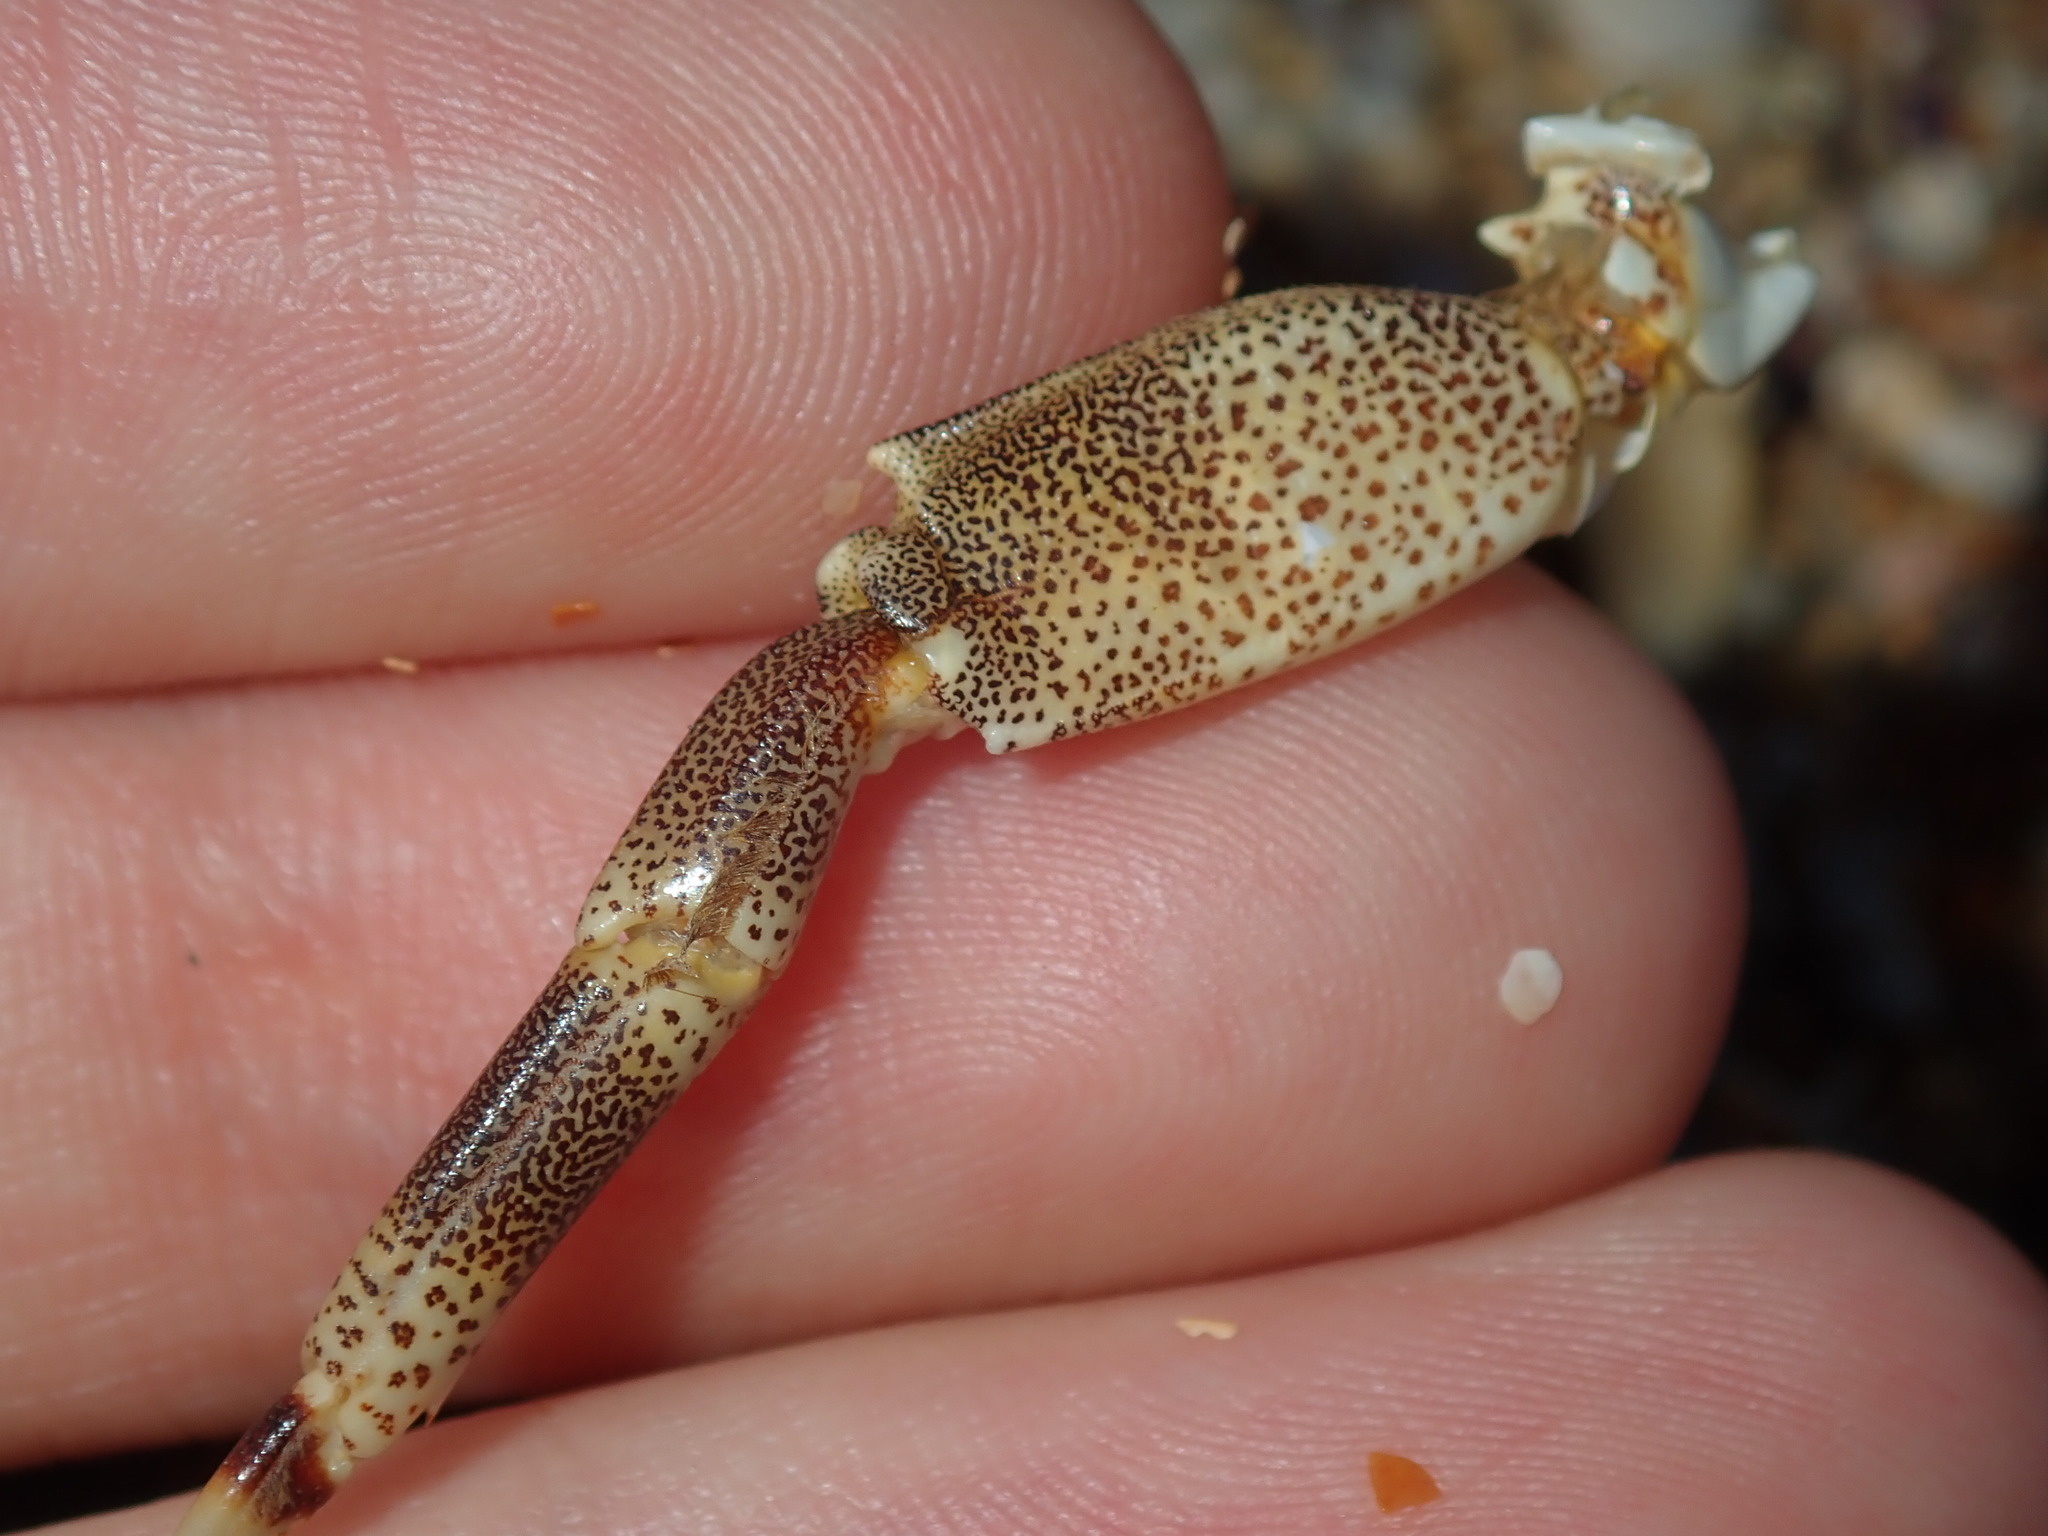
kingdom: Animalia
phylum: Arthropoda
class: Malacostraca
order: Decapoda
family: Plagusiidae
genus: Davusia
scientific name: Davusia glabra
